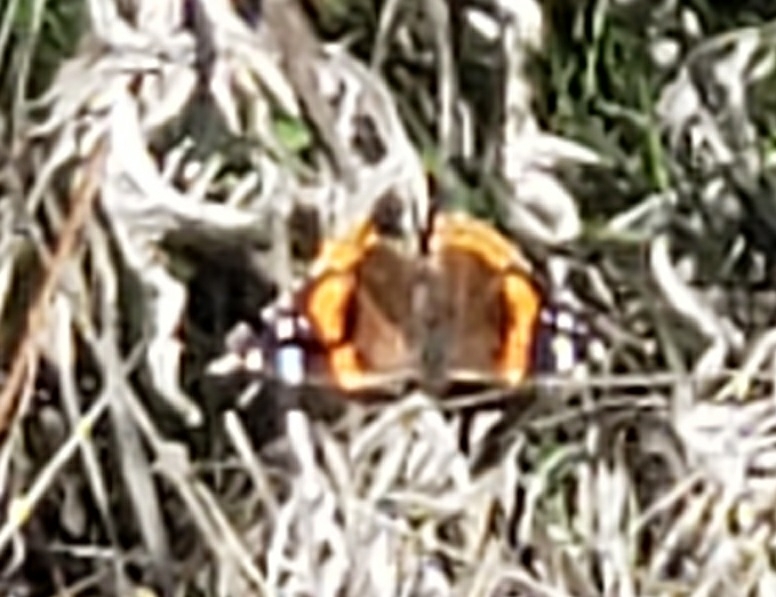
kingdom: Animalia
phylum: Arthropoda
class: Insecta
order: Lepidoptera
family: Nymphalidae
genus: Vanessa
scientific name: Vanessa atalanta
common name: Red admiral
